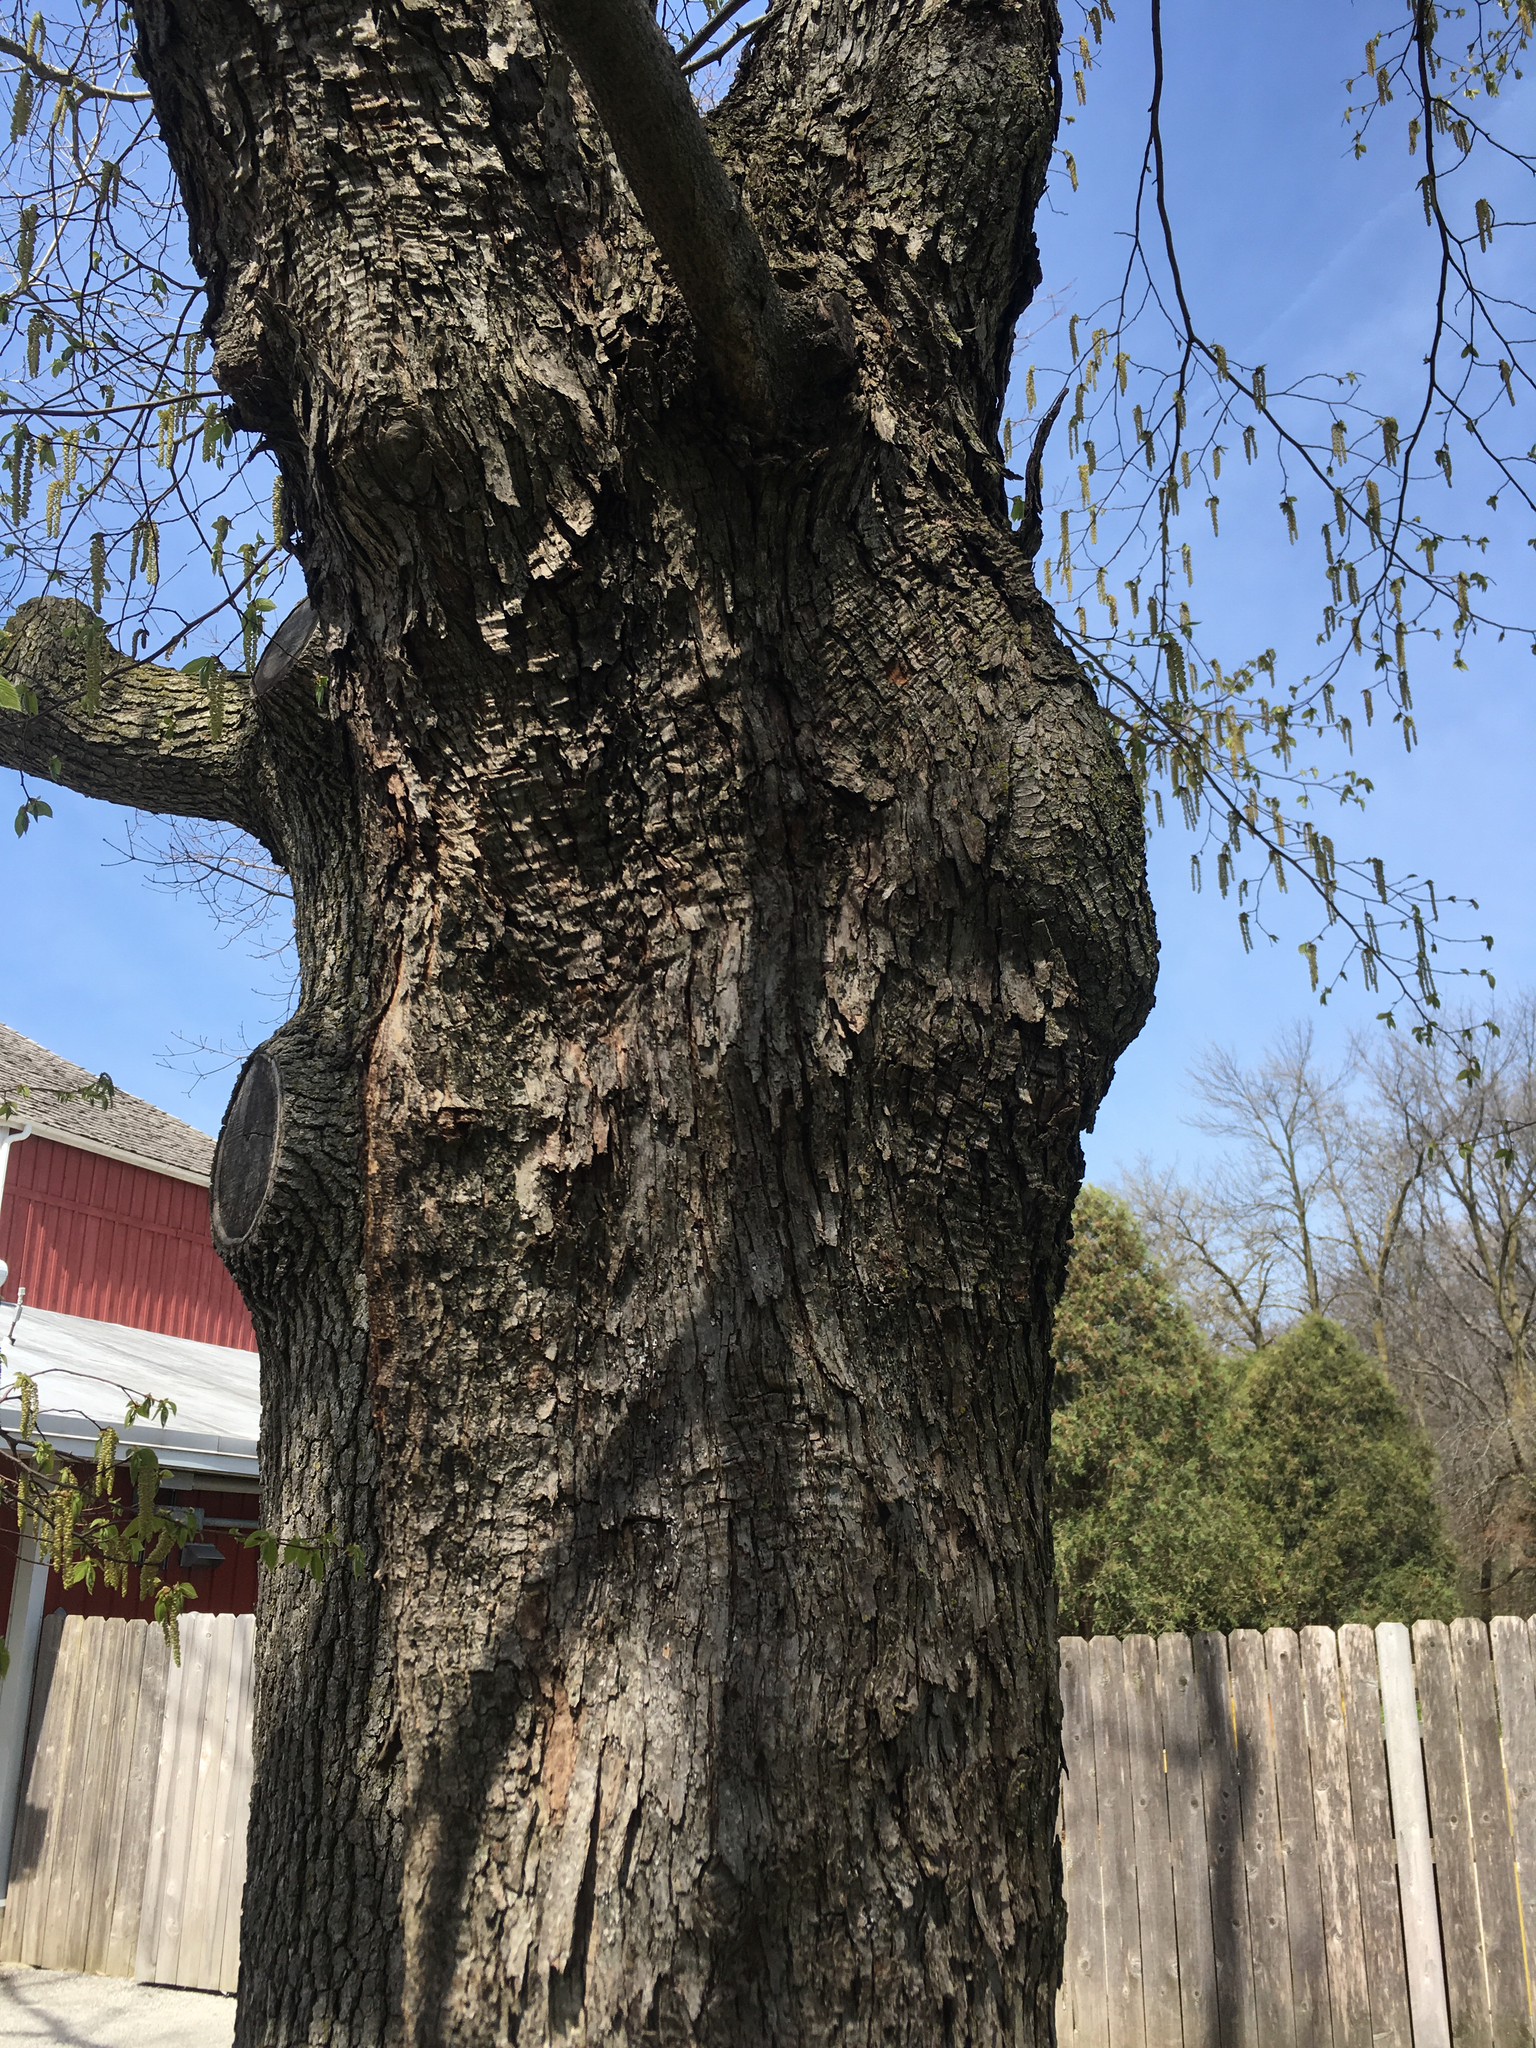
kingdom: Plantae
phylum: Tracheophyta
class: Magnoliopsida
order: Fagales
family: Betulaceae
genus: Ostrya
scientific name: Ostrya virginiana
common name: Ironwood
